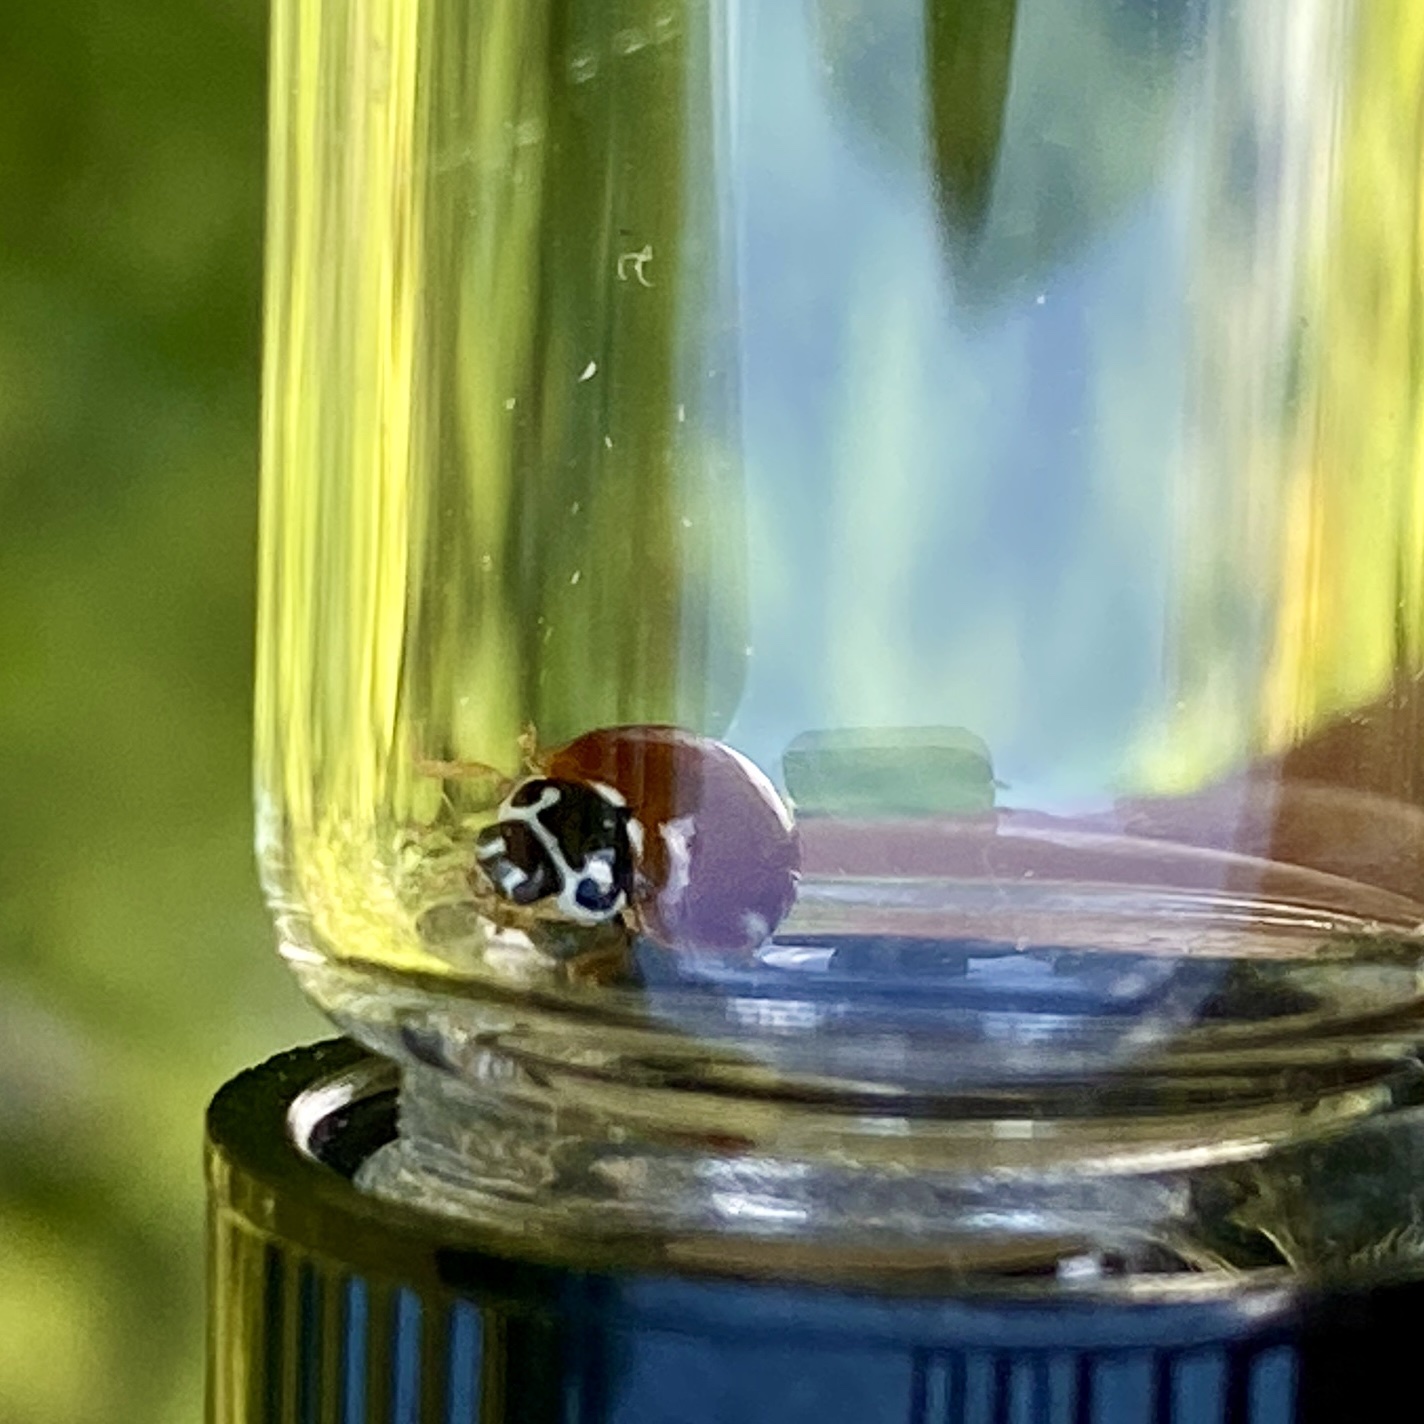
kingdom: Animalia
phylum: Arthropoda
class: Insecta
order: Coleoptera
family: Coccinellidae
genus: Cycloneda
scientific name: Cycloneda munda
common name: Polished lady beetle
